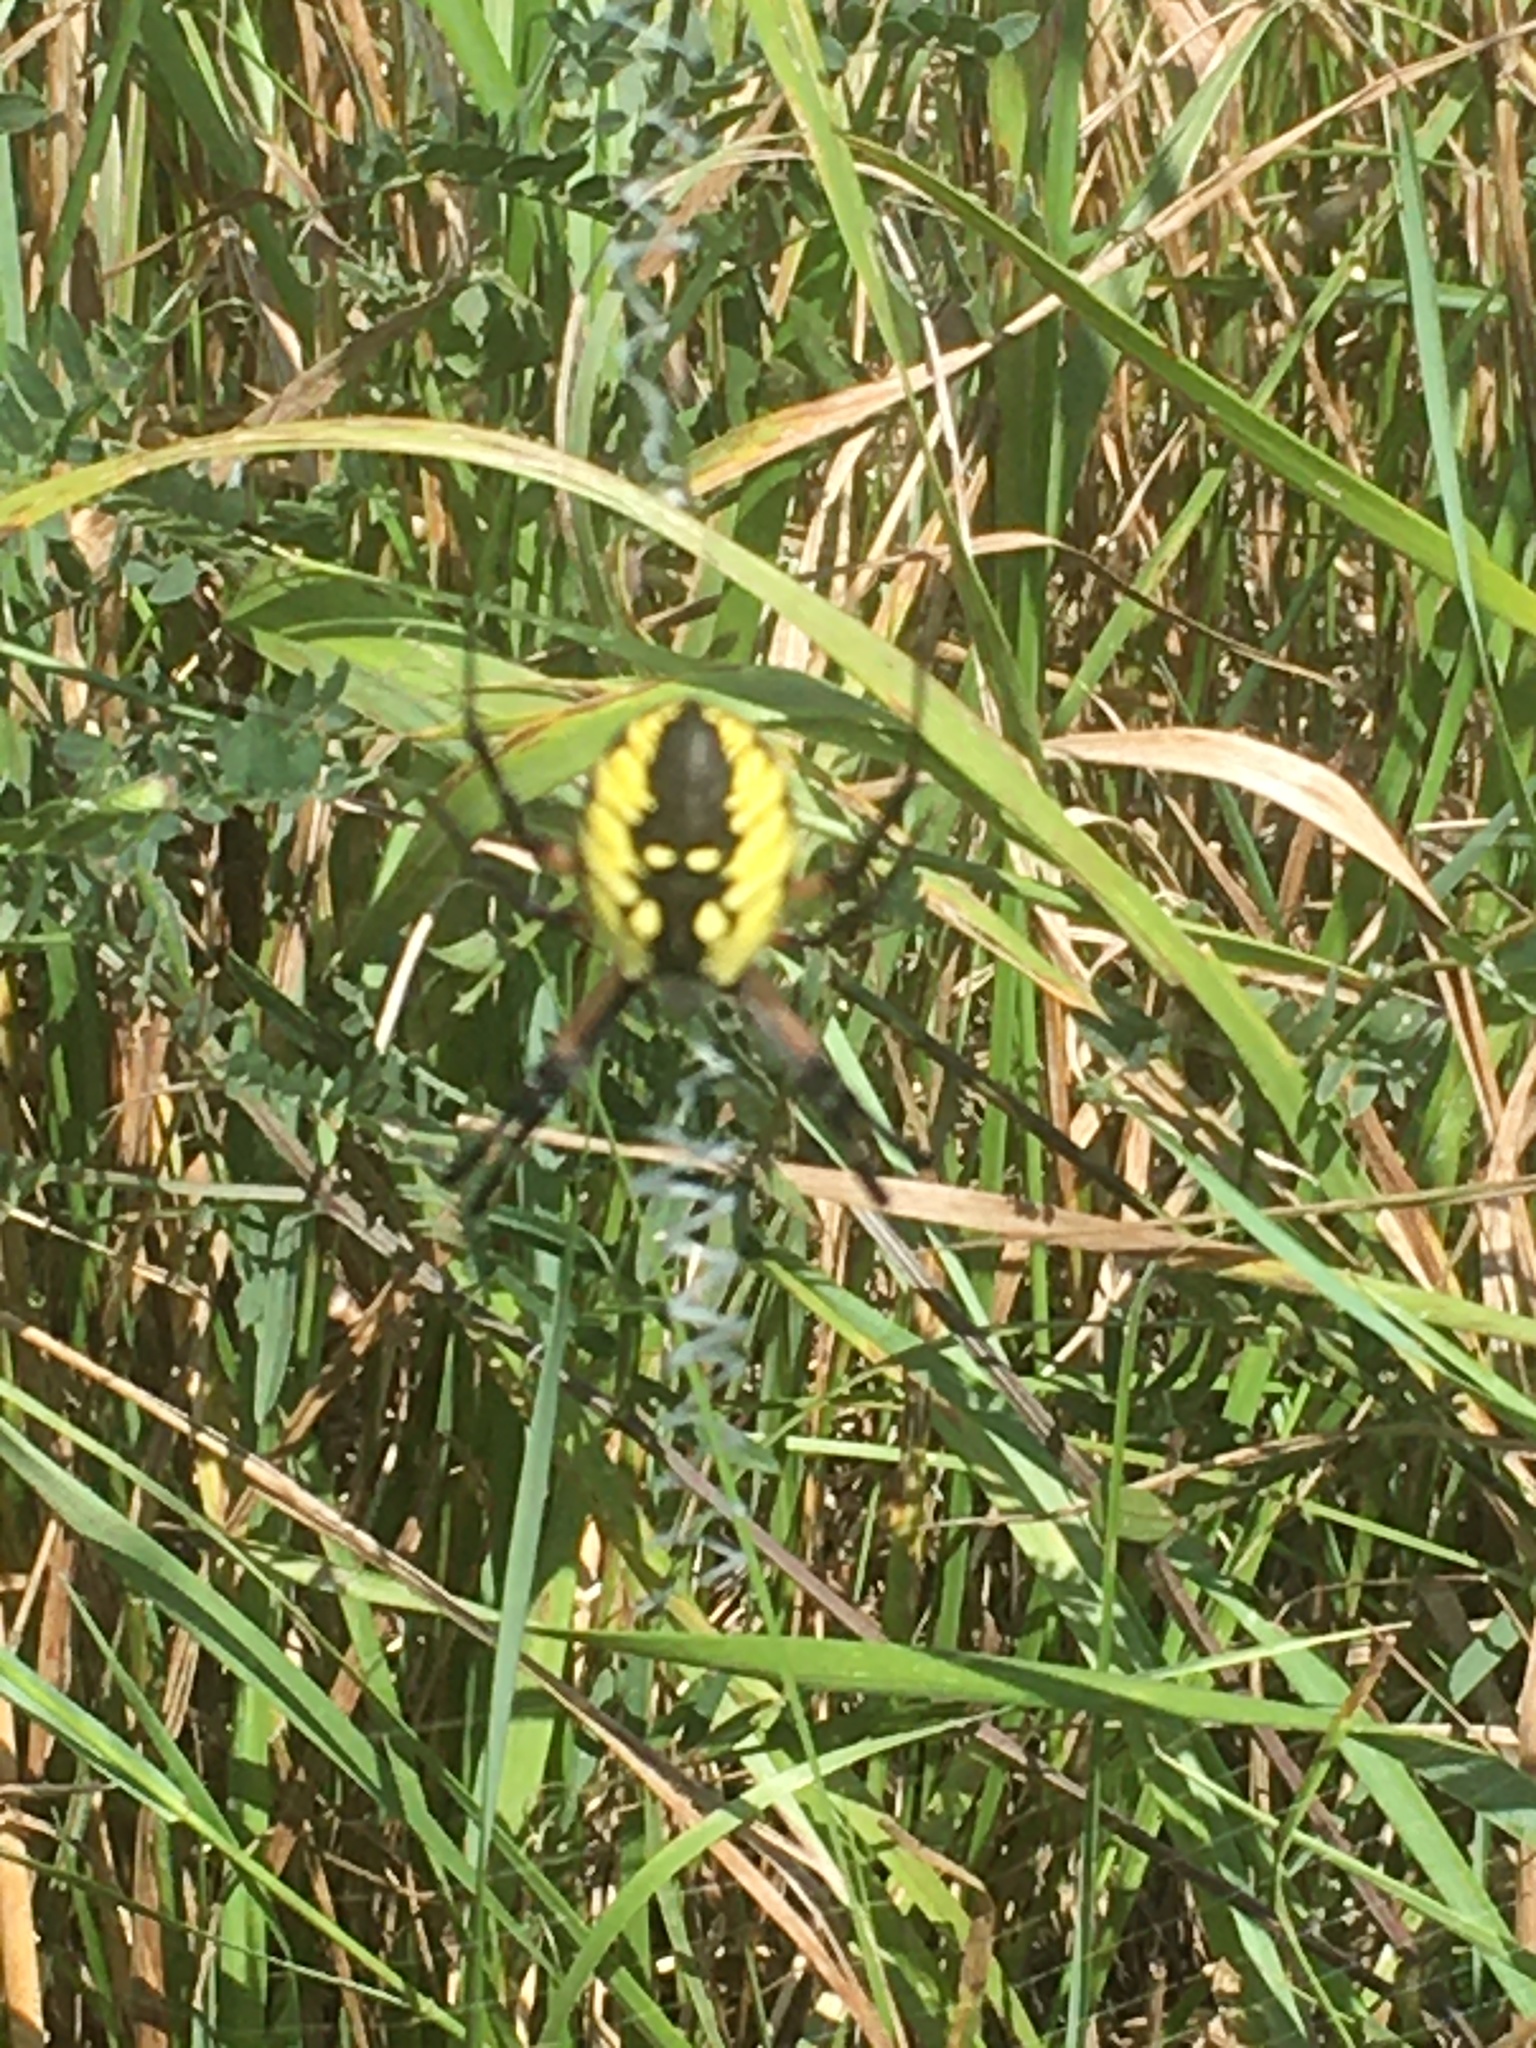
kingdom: Animalia
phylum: Arthropoda
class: Arachnida
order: Araneae
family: Araneidae
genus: Argiope
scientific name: Argiope aurantia
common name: Orb weavers
